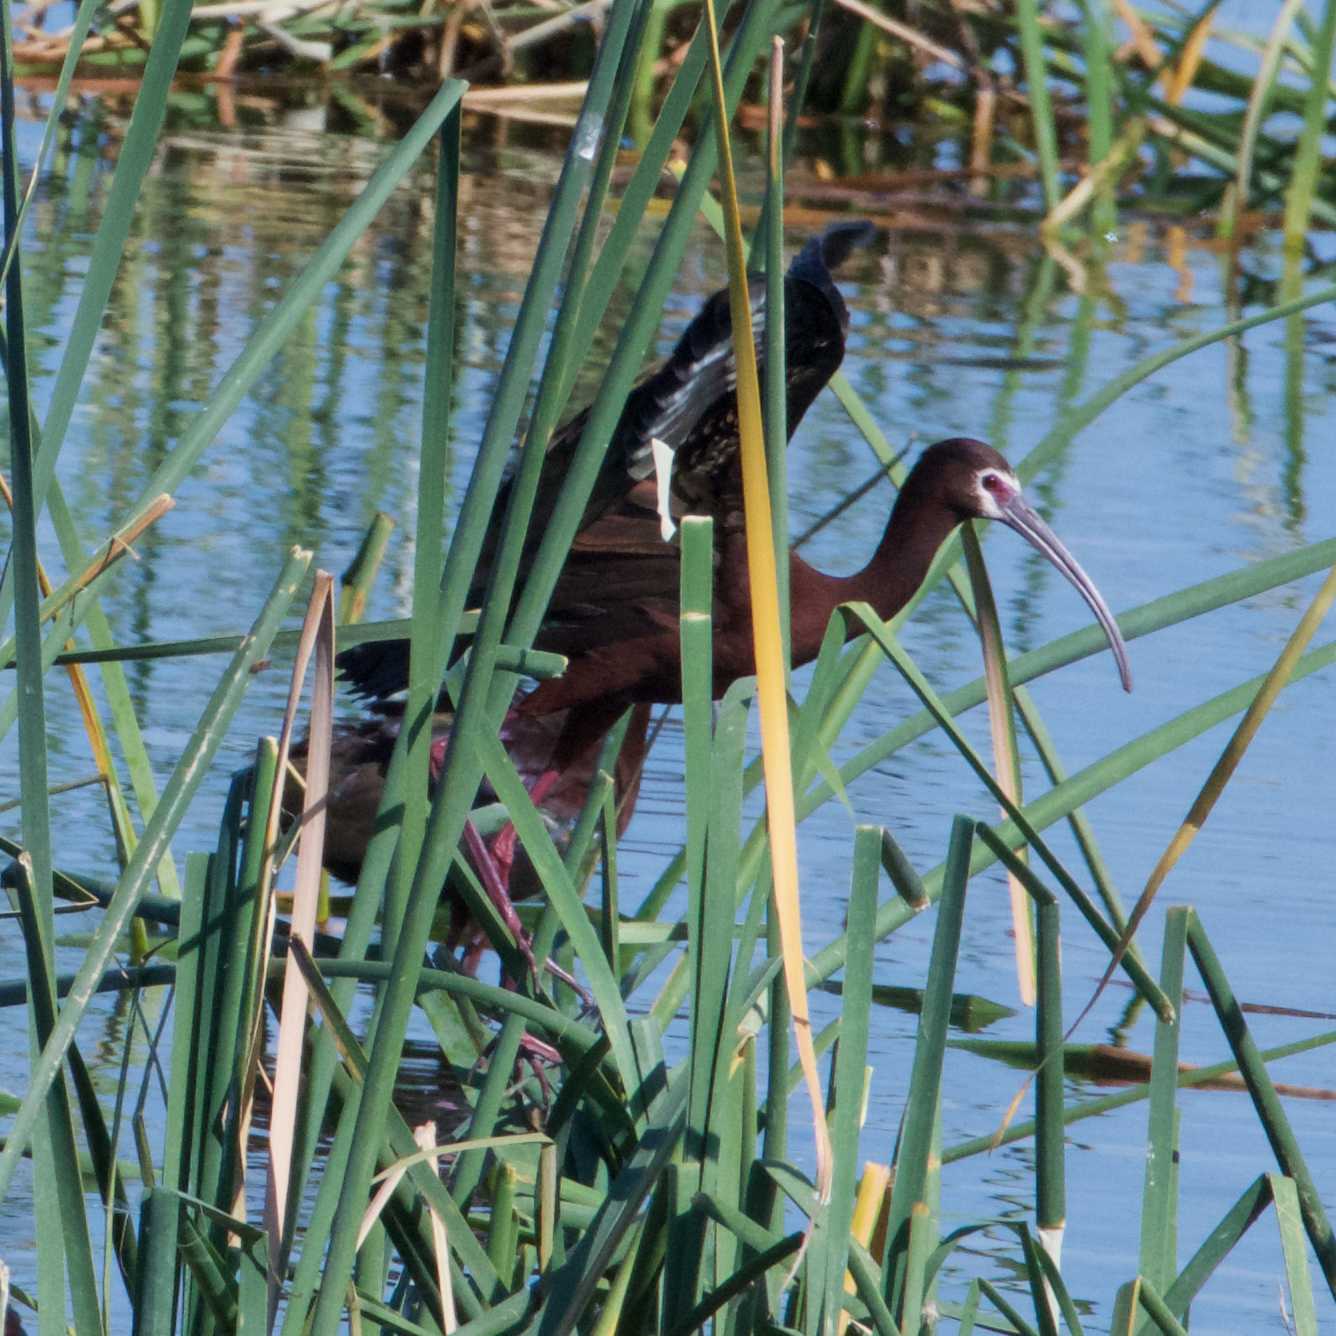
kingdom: Animalia
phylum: Chordata
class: Aves
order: Pelecaniformes
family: Threskiornithidae
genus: Plegadis
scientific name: Plegadis chihi
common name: White-faced ibis
